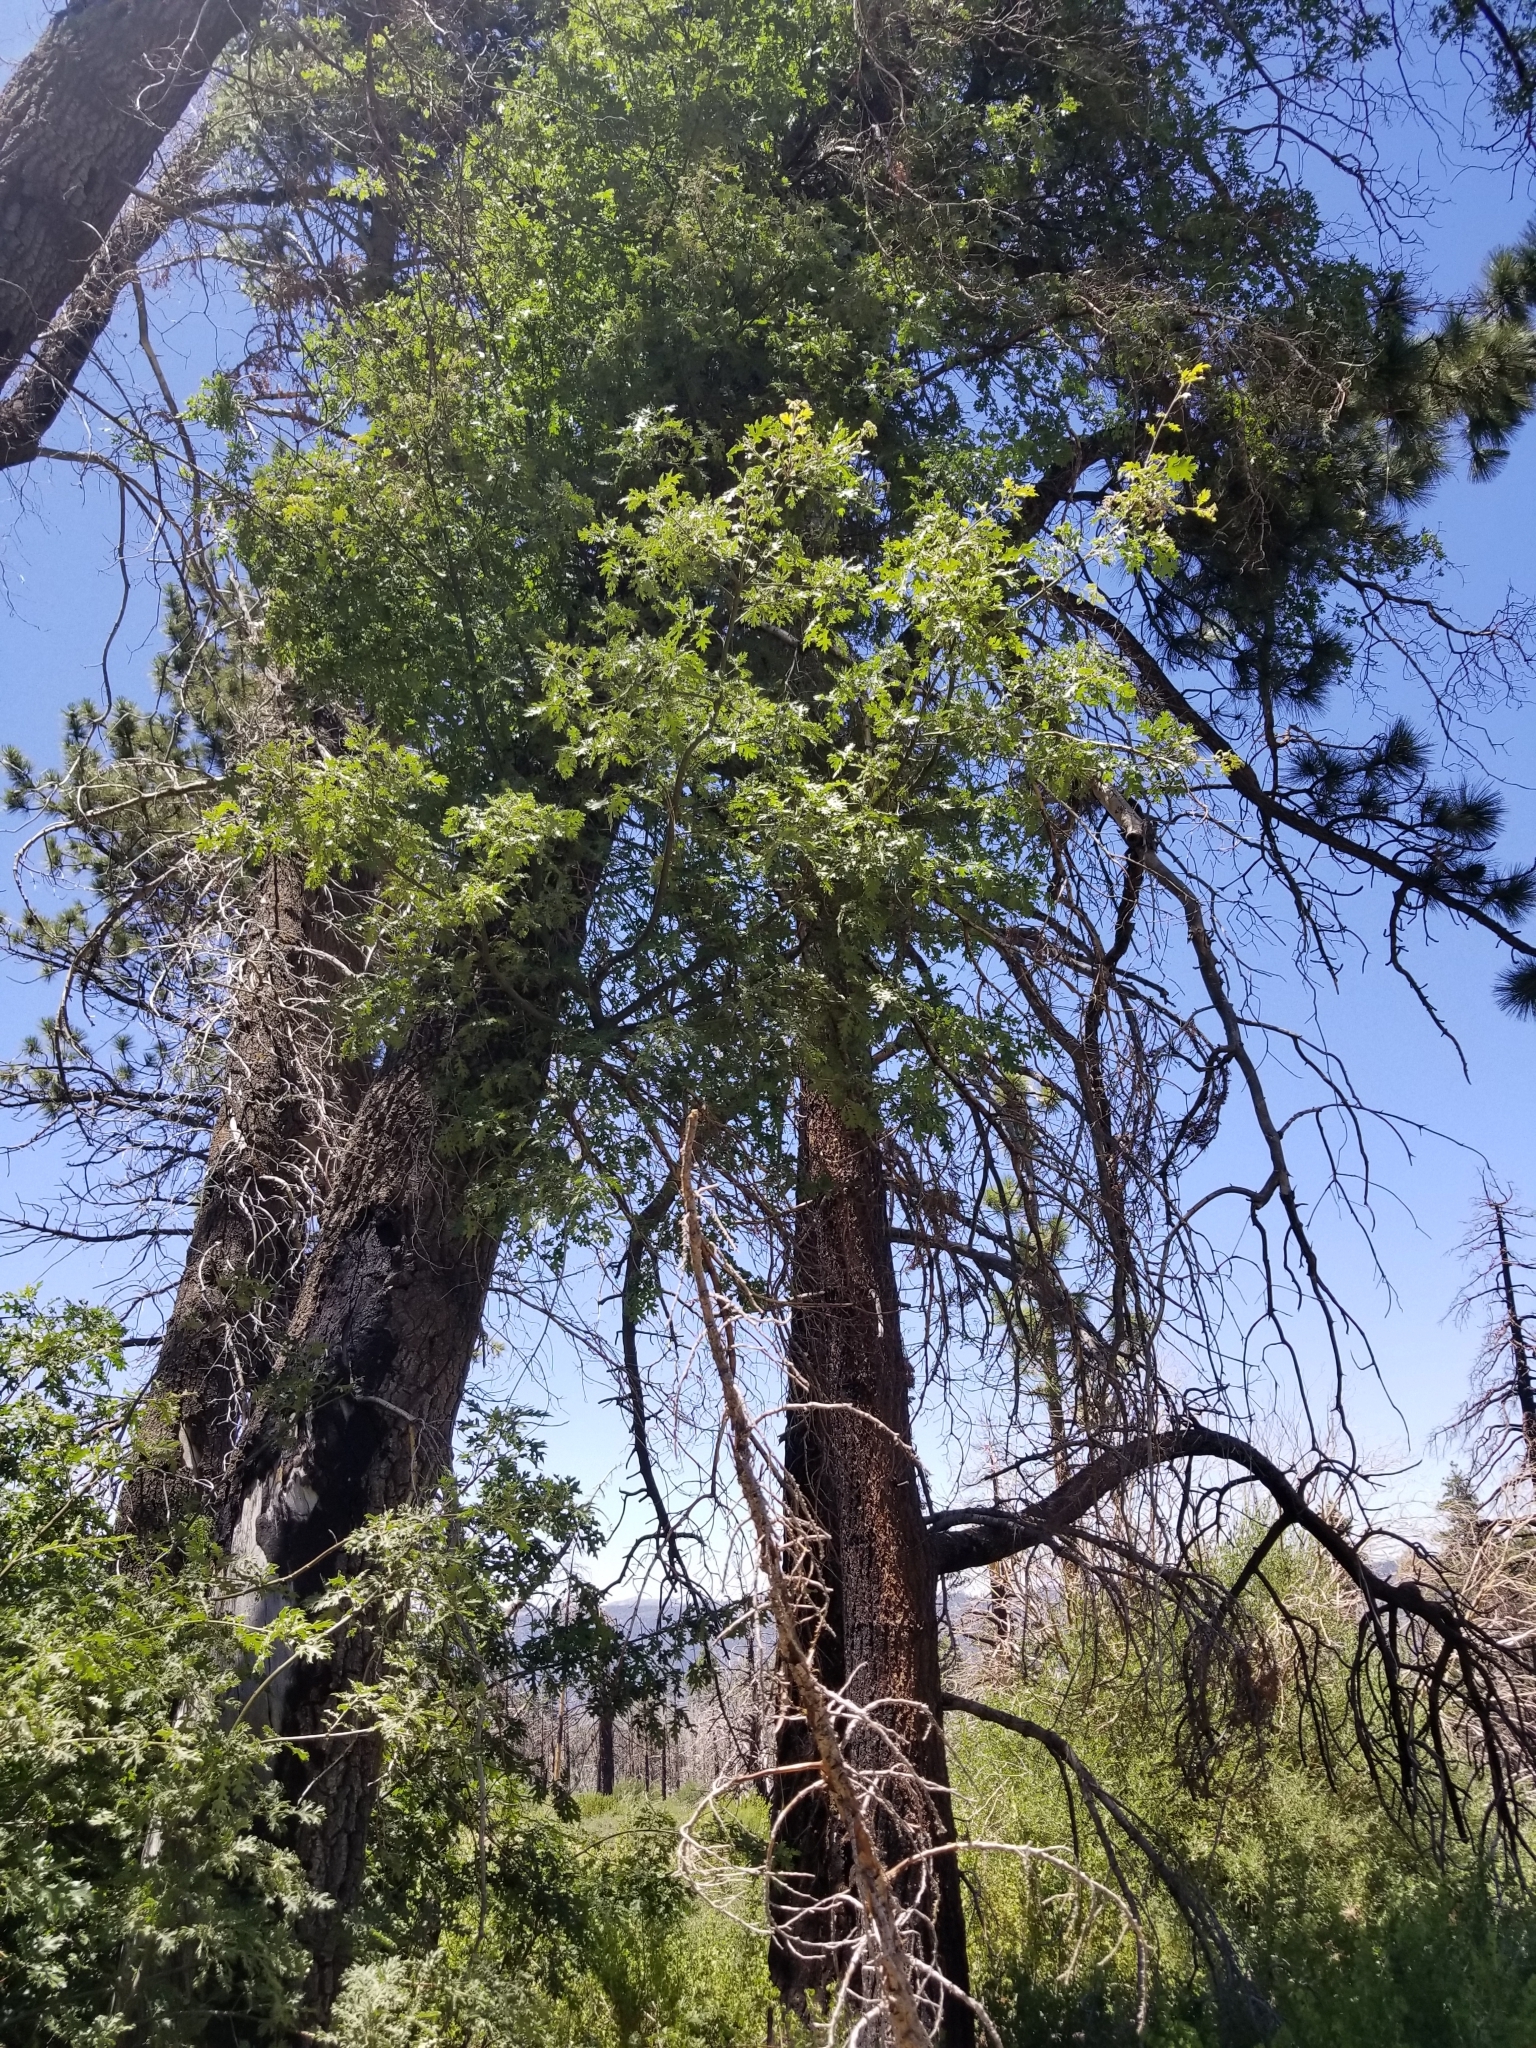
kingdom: Plantae
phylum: Tracheophyta
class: Magnoliopsida
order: Fagales
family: Fagaceae
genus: Quercus
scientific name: Quercus kelloggii
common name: California black oak
